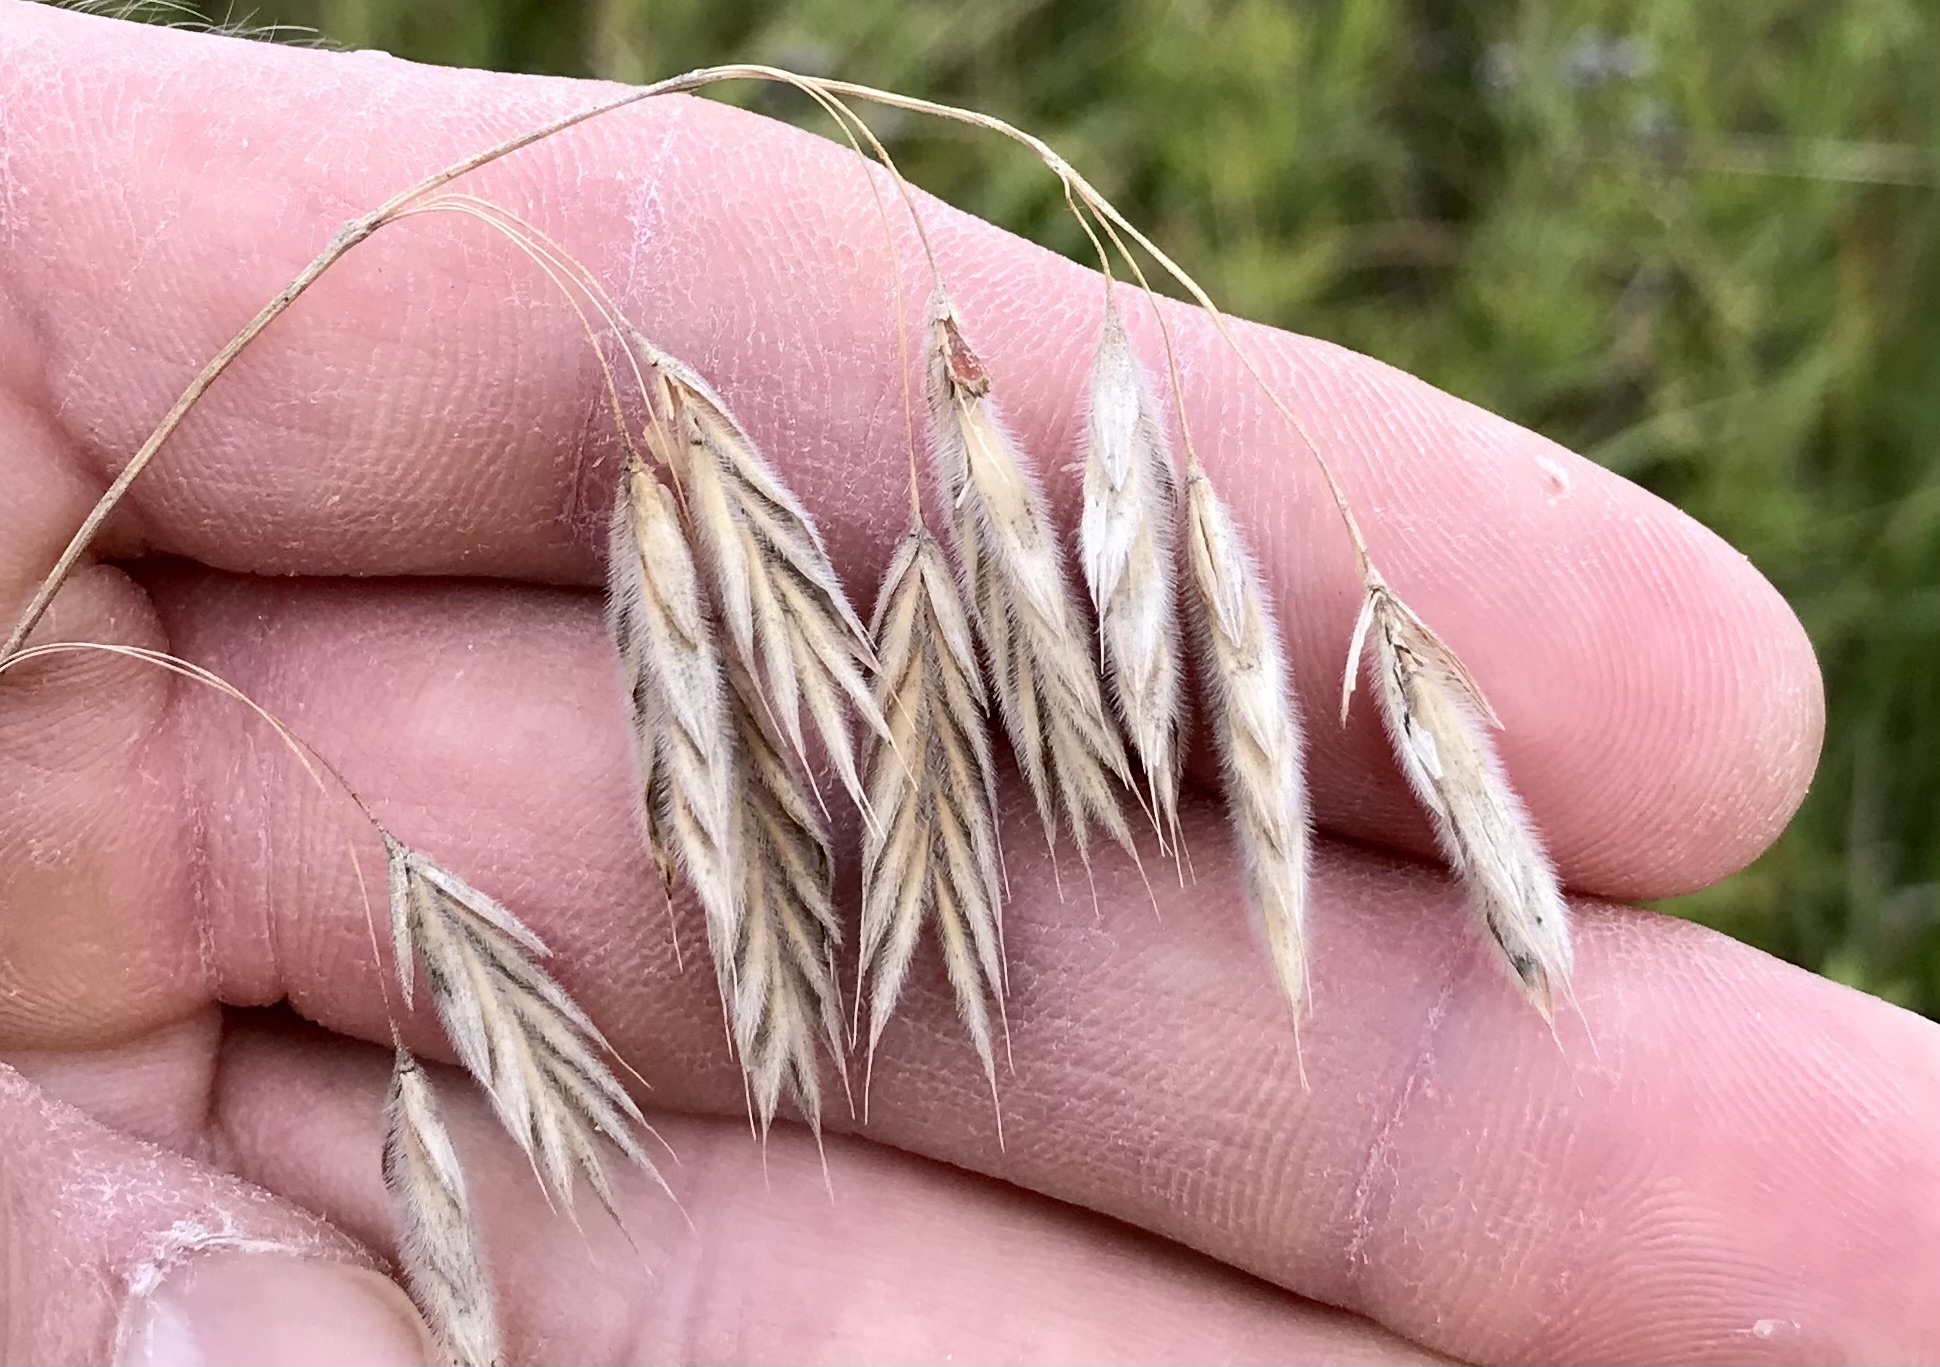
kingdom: Plantae
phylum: Tracheophyta
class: Liliopsida
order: Poales
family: Poaceae
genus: Bromus
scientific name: Bromus kalmii
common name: Kalm brome
